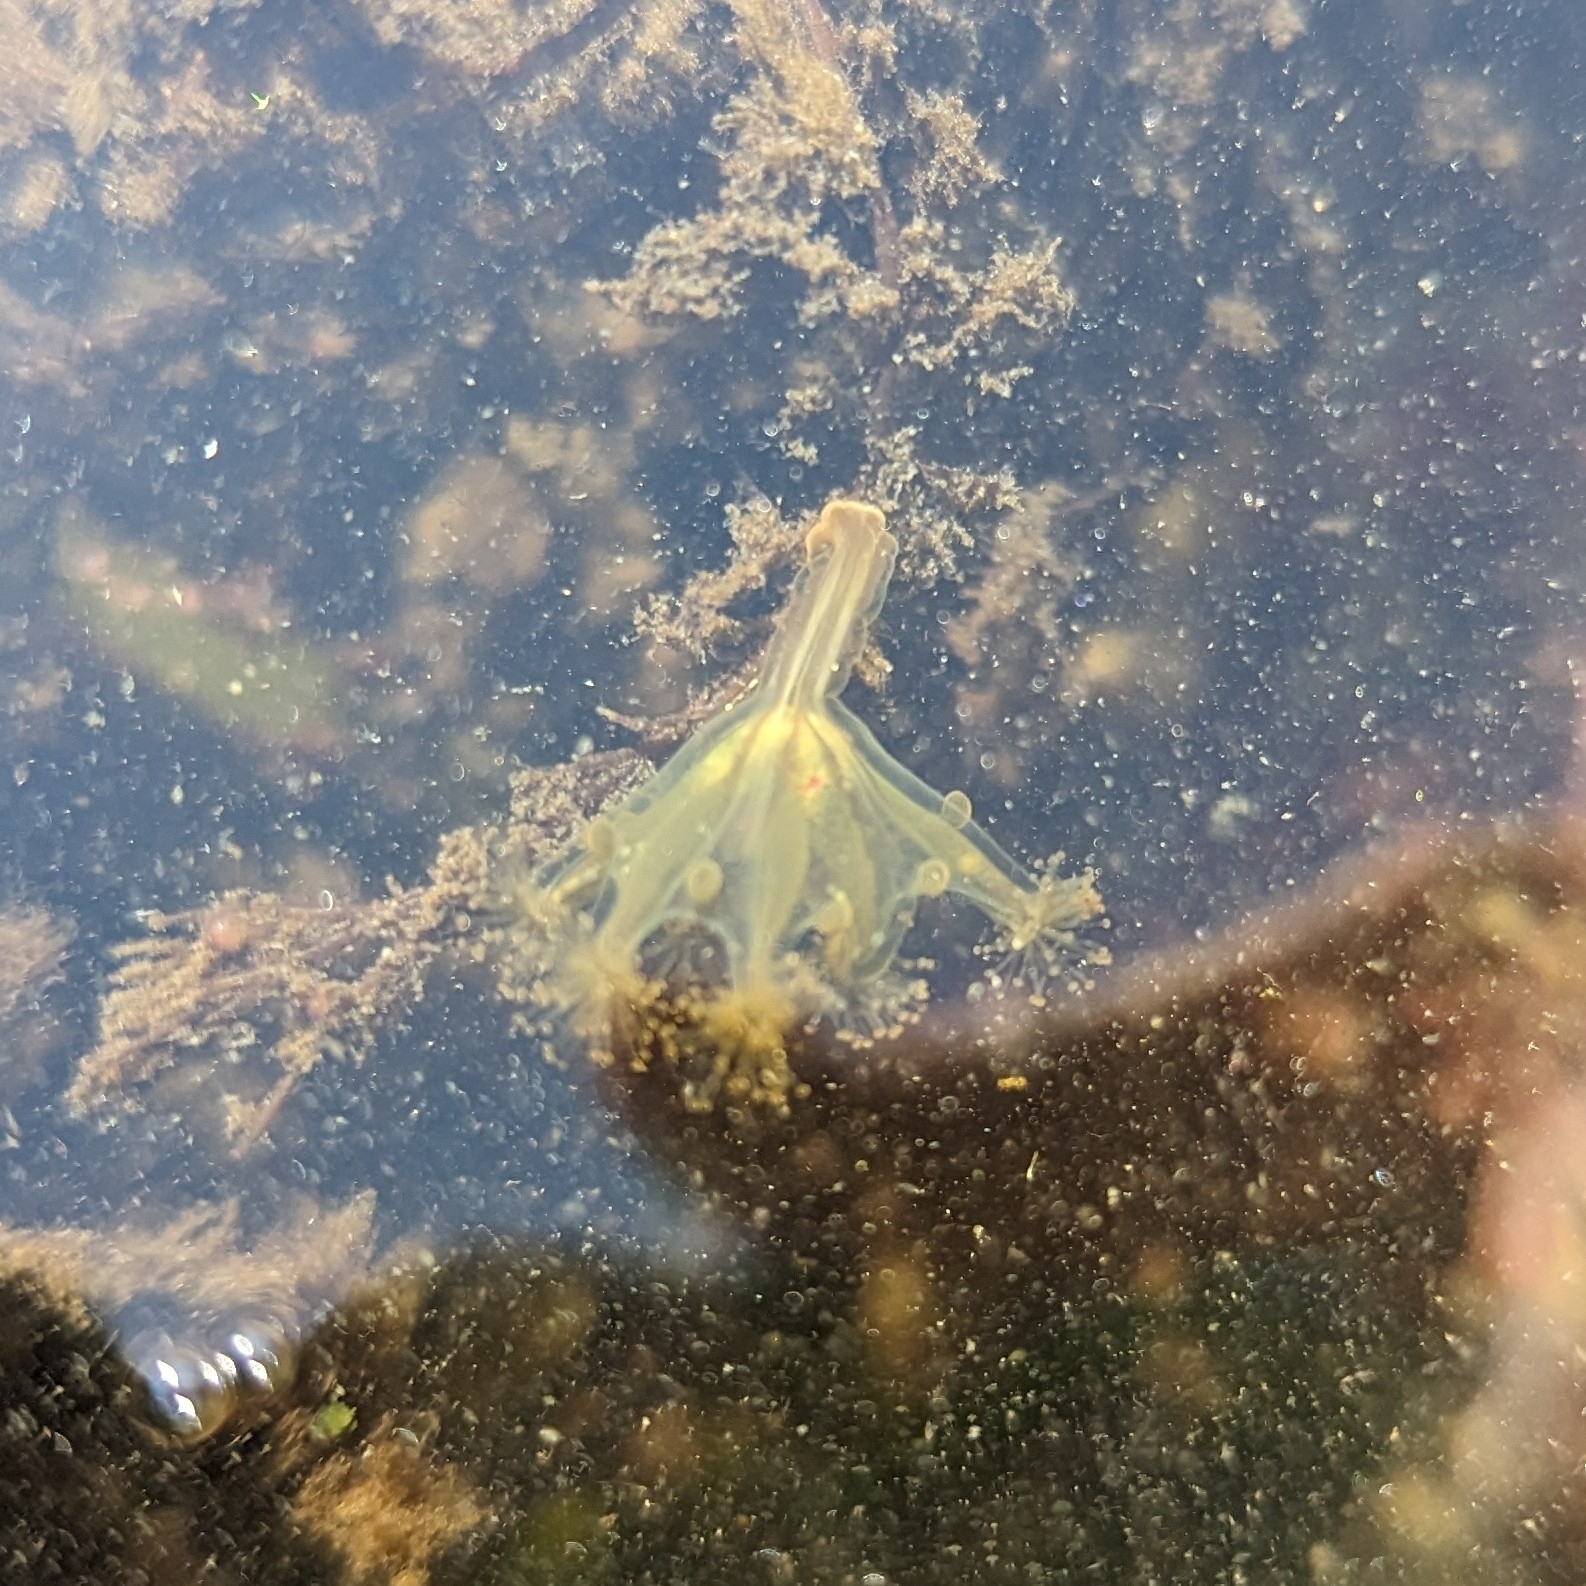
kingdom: Animalia
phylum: Cnidaria
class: Staurozoa
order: Stauromedusae
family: Haliclystidae
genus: Haliclystus
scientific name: Haliclystus sanjuanensis
